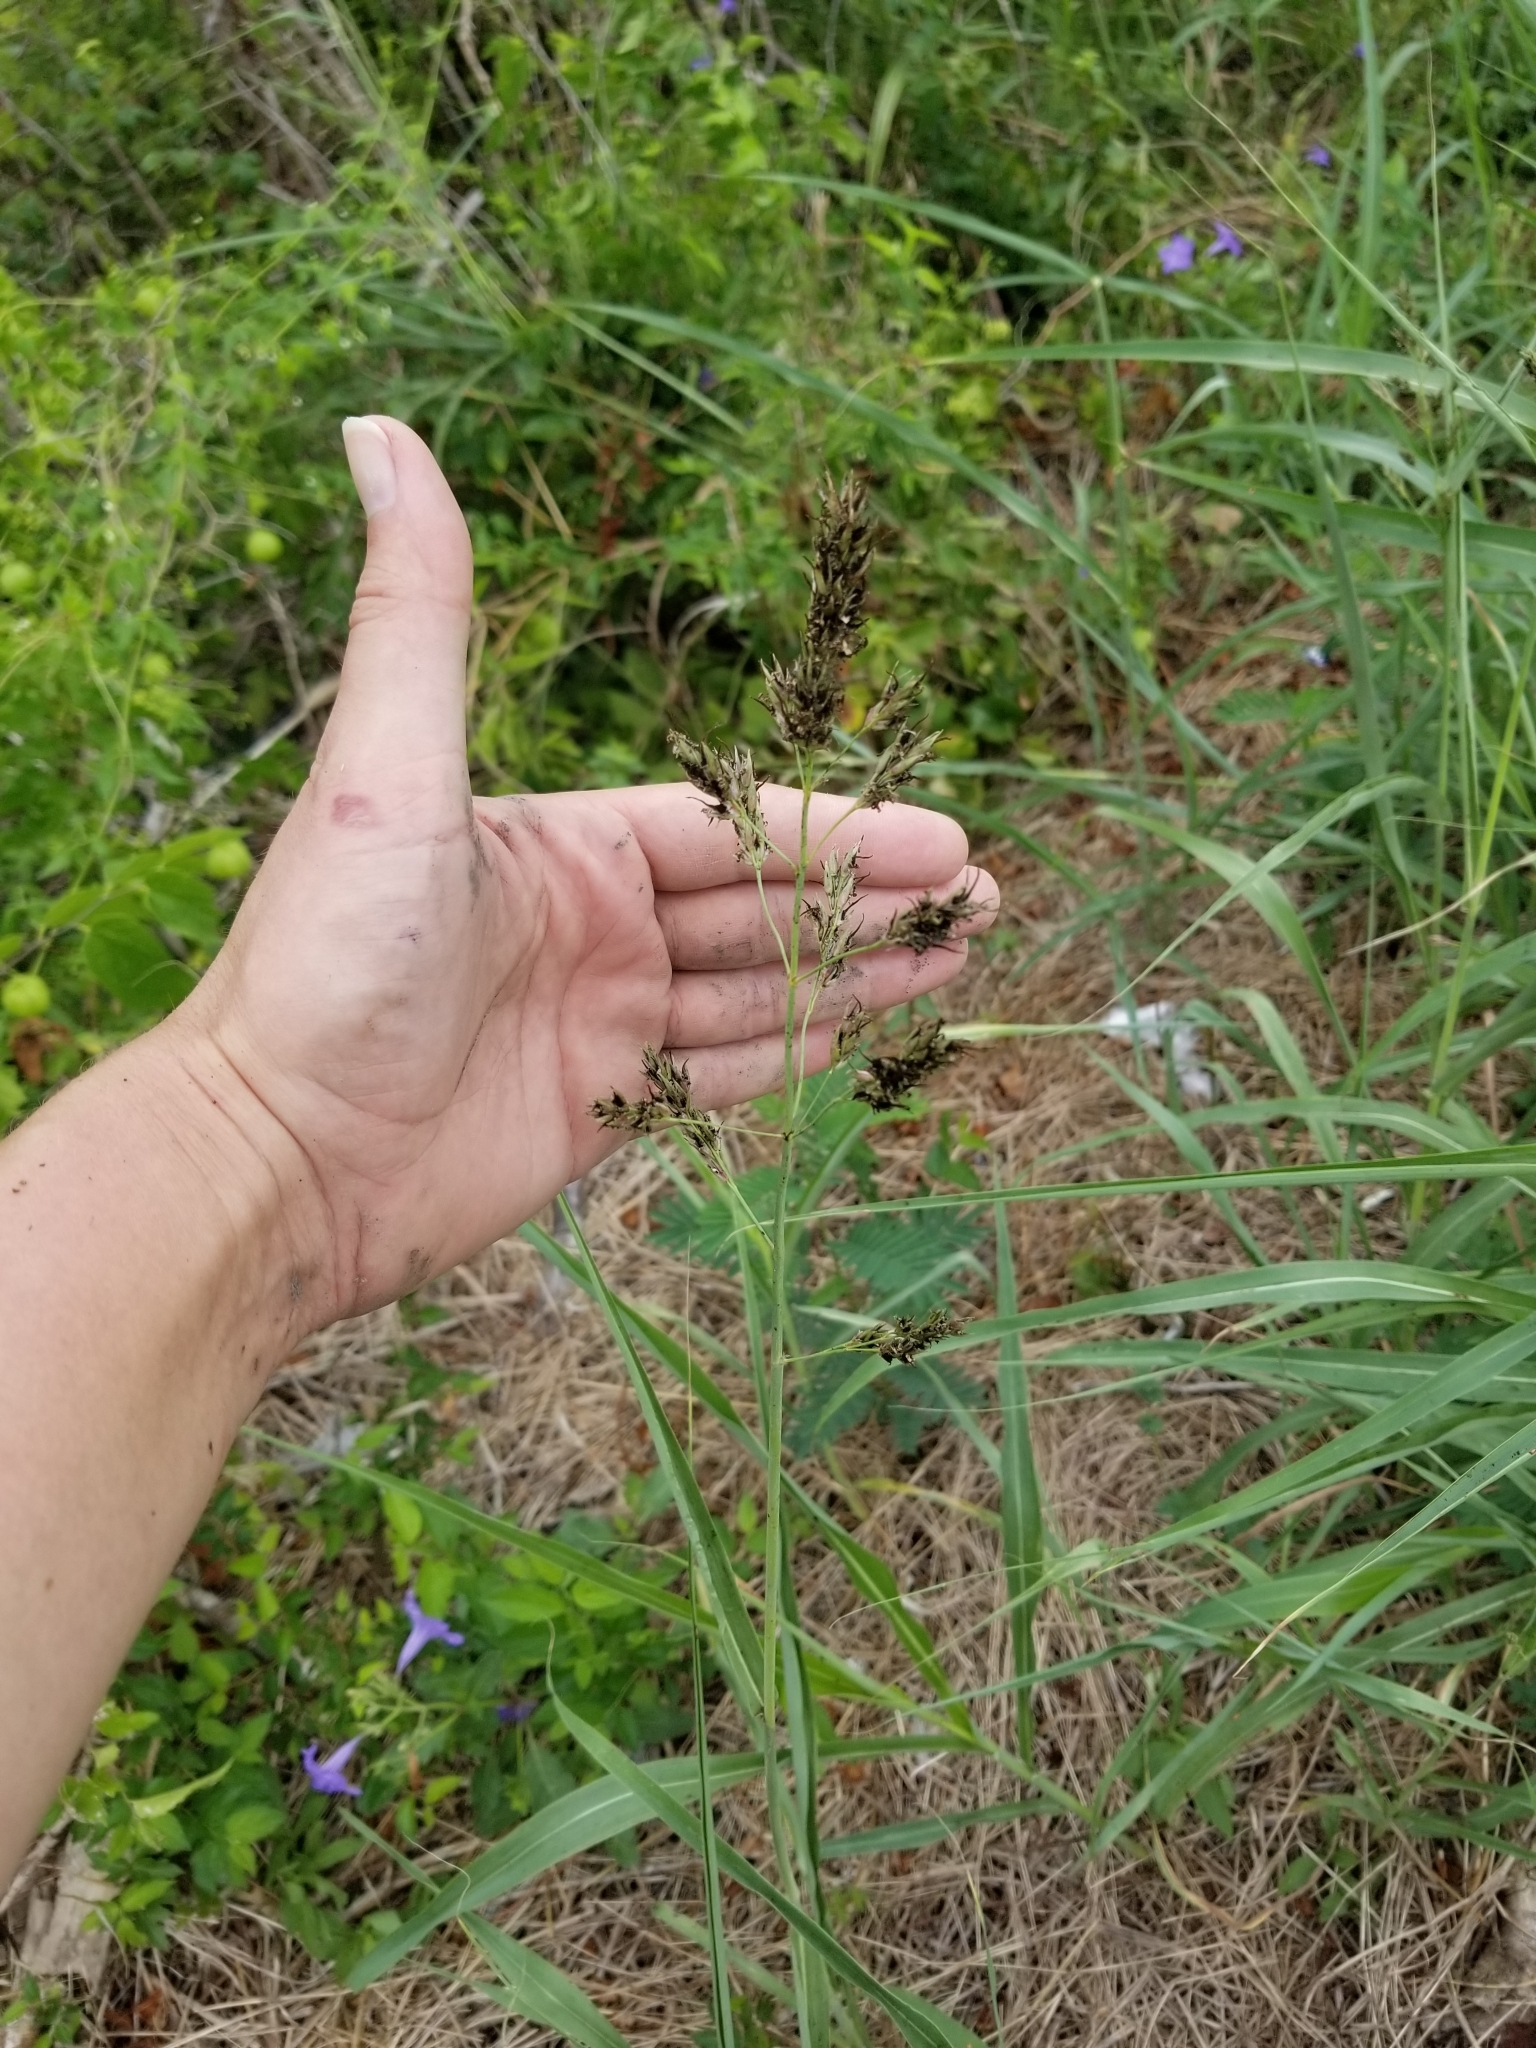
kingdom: Plantae
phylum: Tracheophyta
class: Liliopsida
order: Poales
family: Poaceae
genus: Sorghum
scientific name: Sorghum halepense
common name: Johnson-grass
